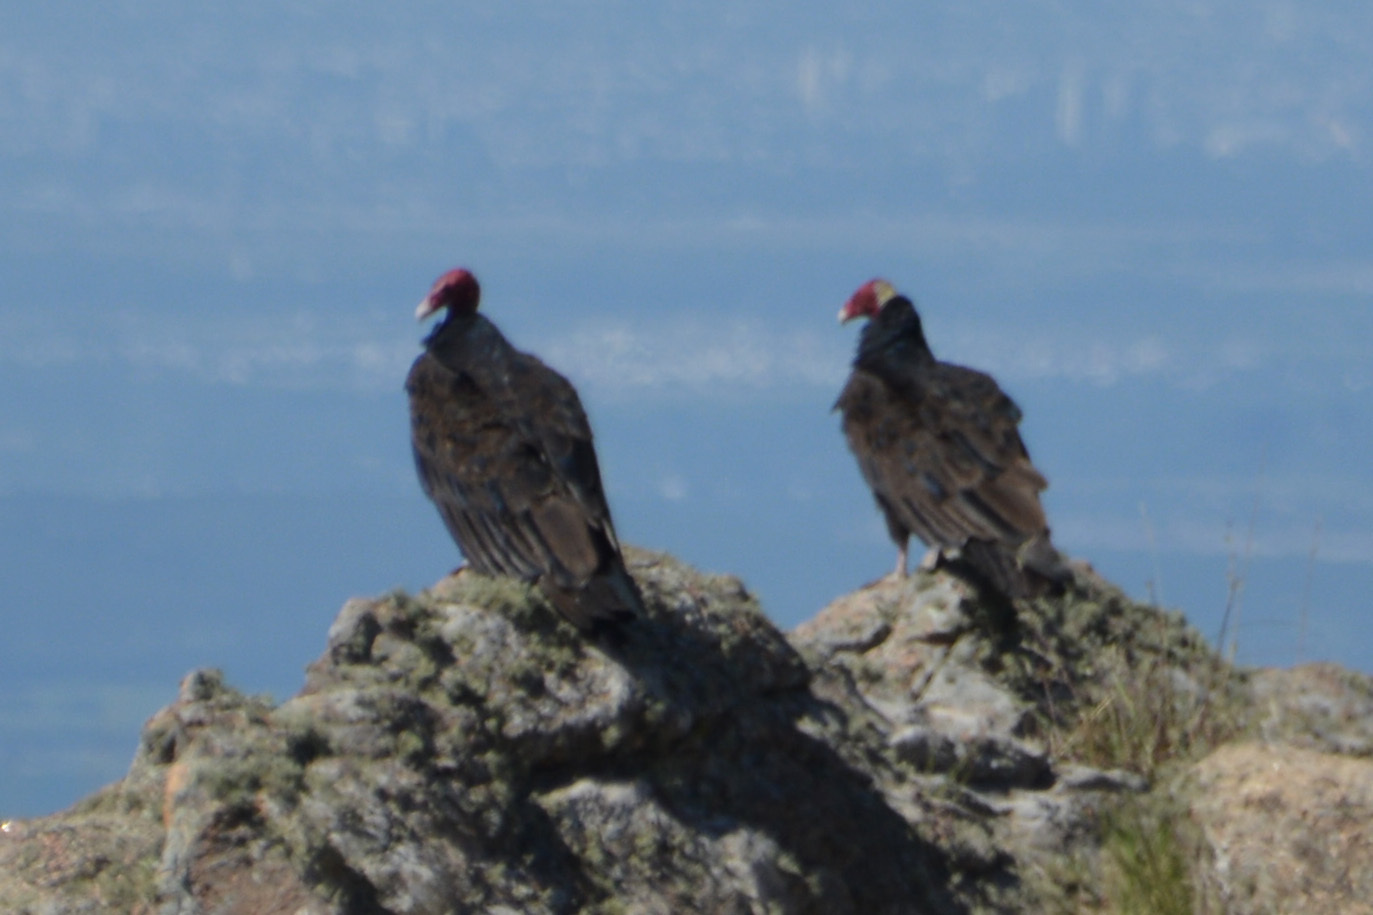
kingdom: Animalia
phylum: Chordata
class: Aves
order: Accipitriformes
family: Cathartidae
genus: Cathartes
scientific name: Cathartes aura
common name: Turkey vulture
